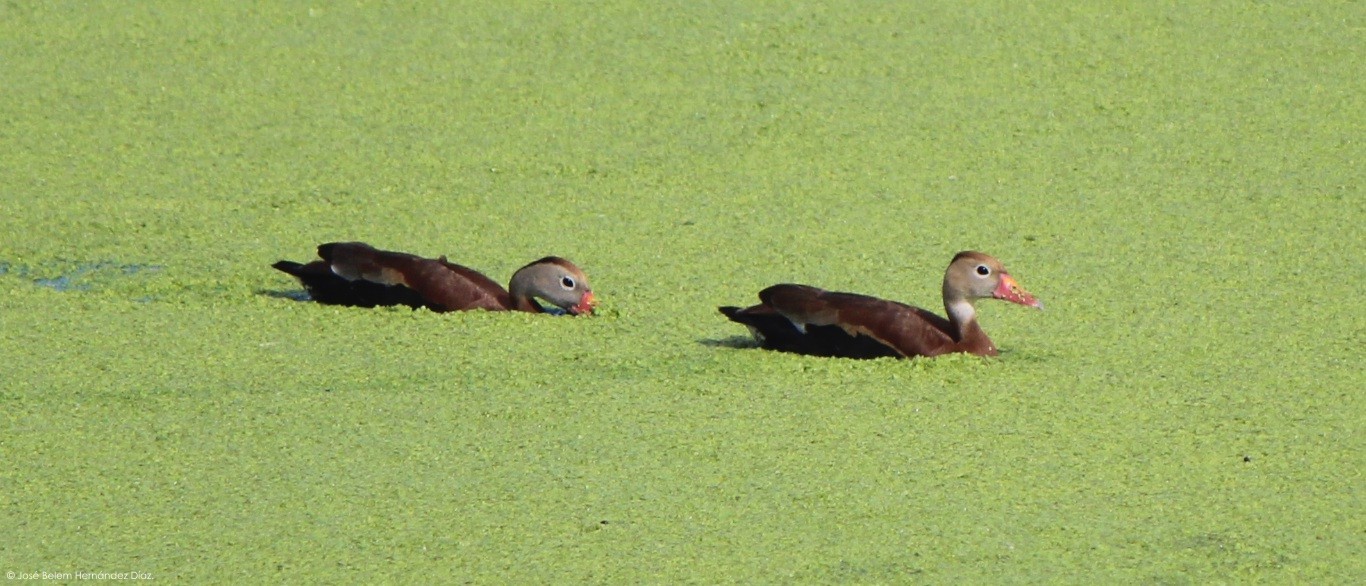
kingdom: Animalia
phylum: Chordata
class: Aves
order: Anseriformes
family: Anatidae
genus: Dendrocygna
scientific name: Dendrocygna autumnalis
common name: Black-bellied whistling duck
